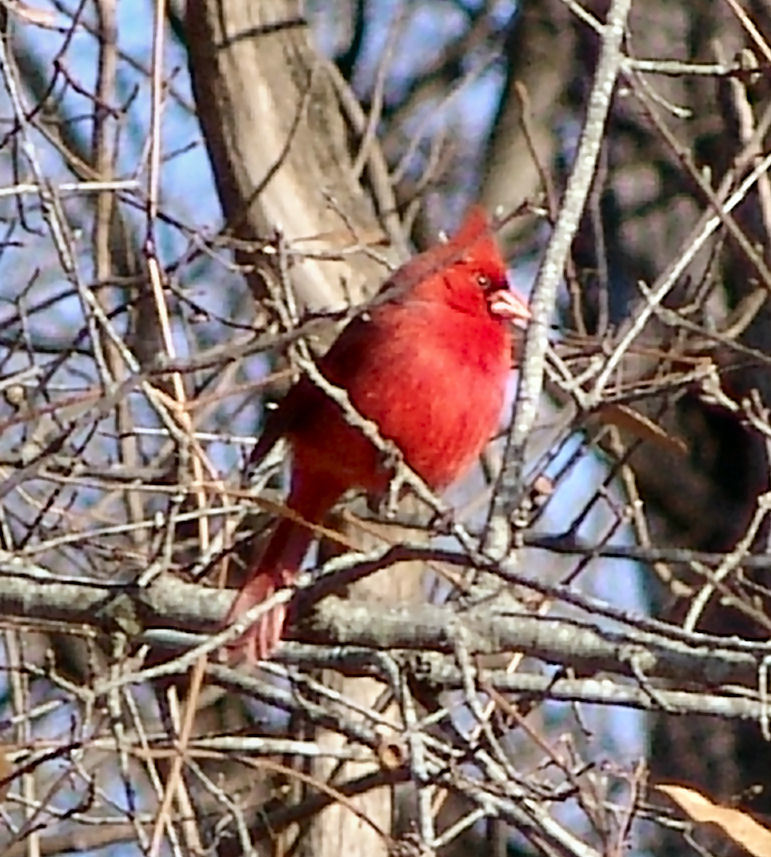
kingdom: Animalia
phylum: Chordata
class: Aves
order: Passeriformes
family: Cardinalidae
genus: Cardinalis
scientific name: Cardinalis cardinalis
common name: Northern cardinal
